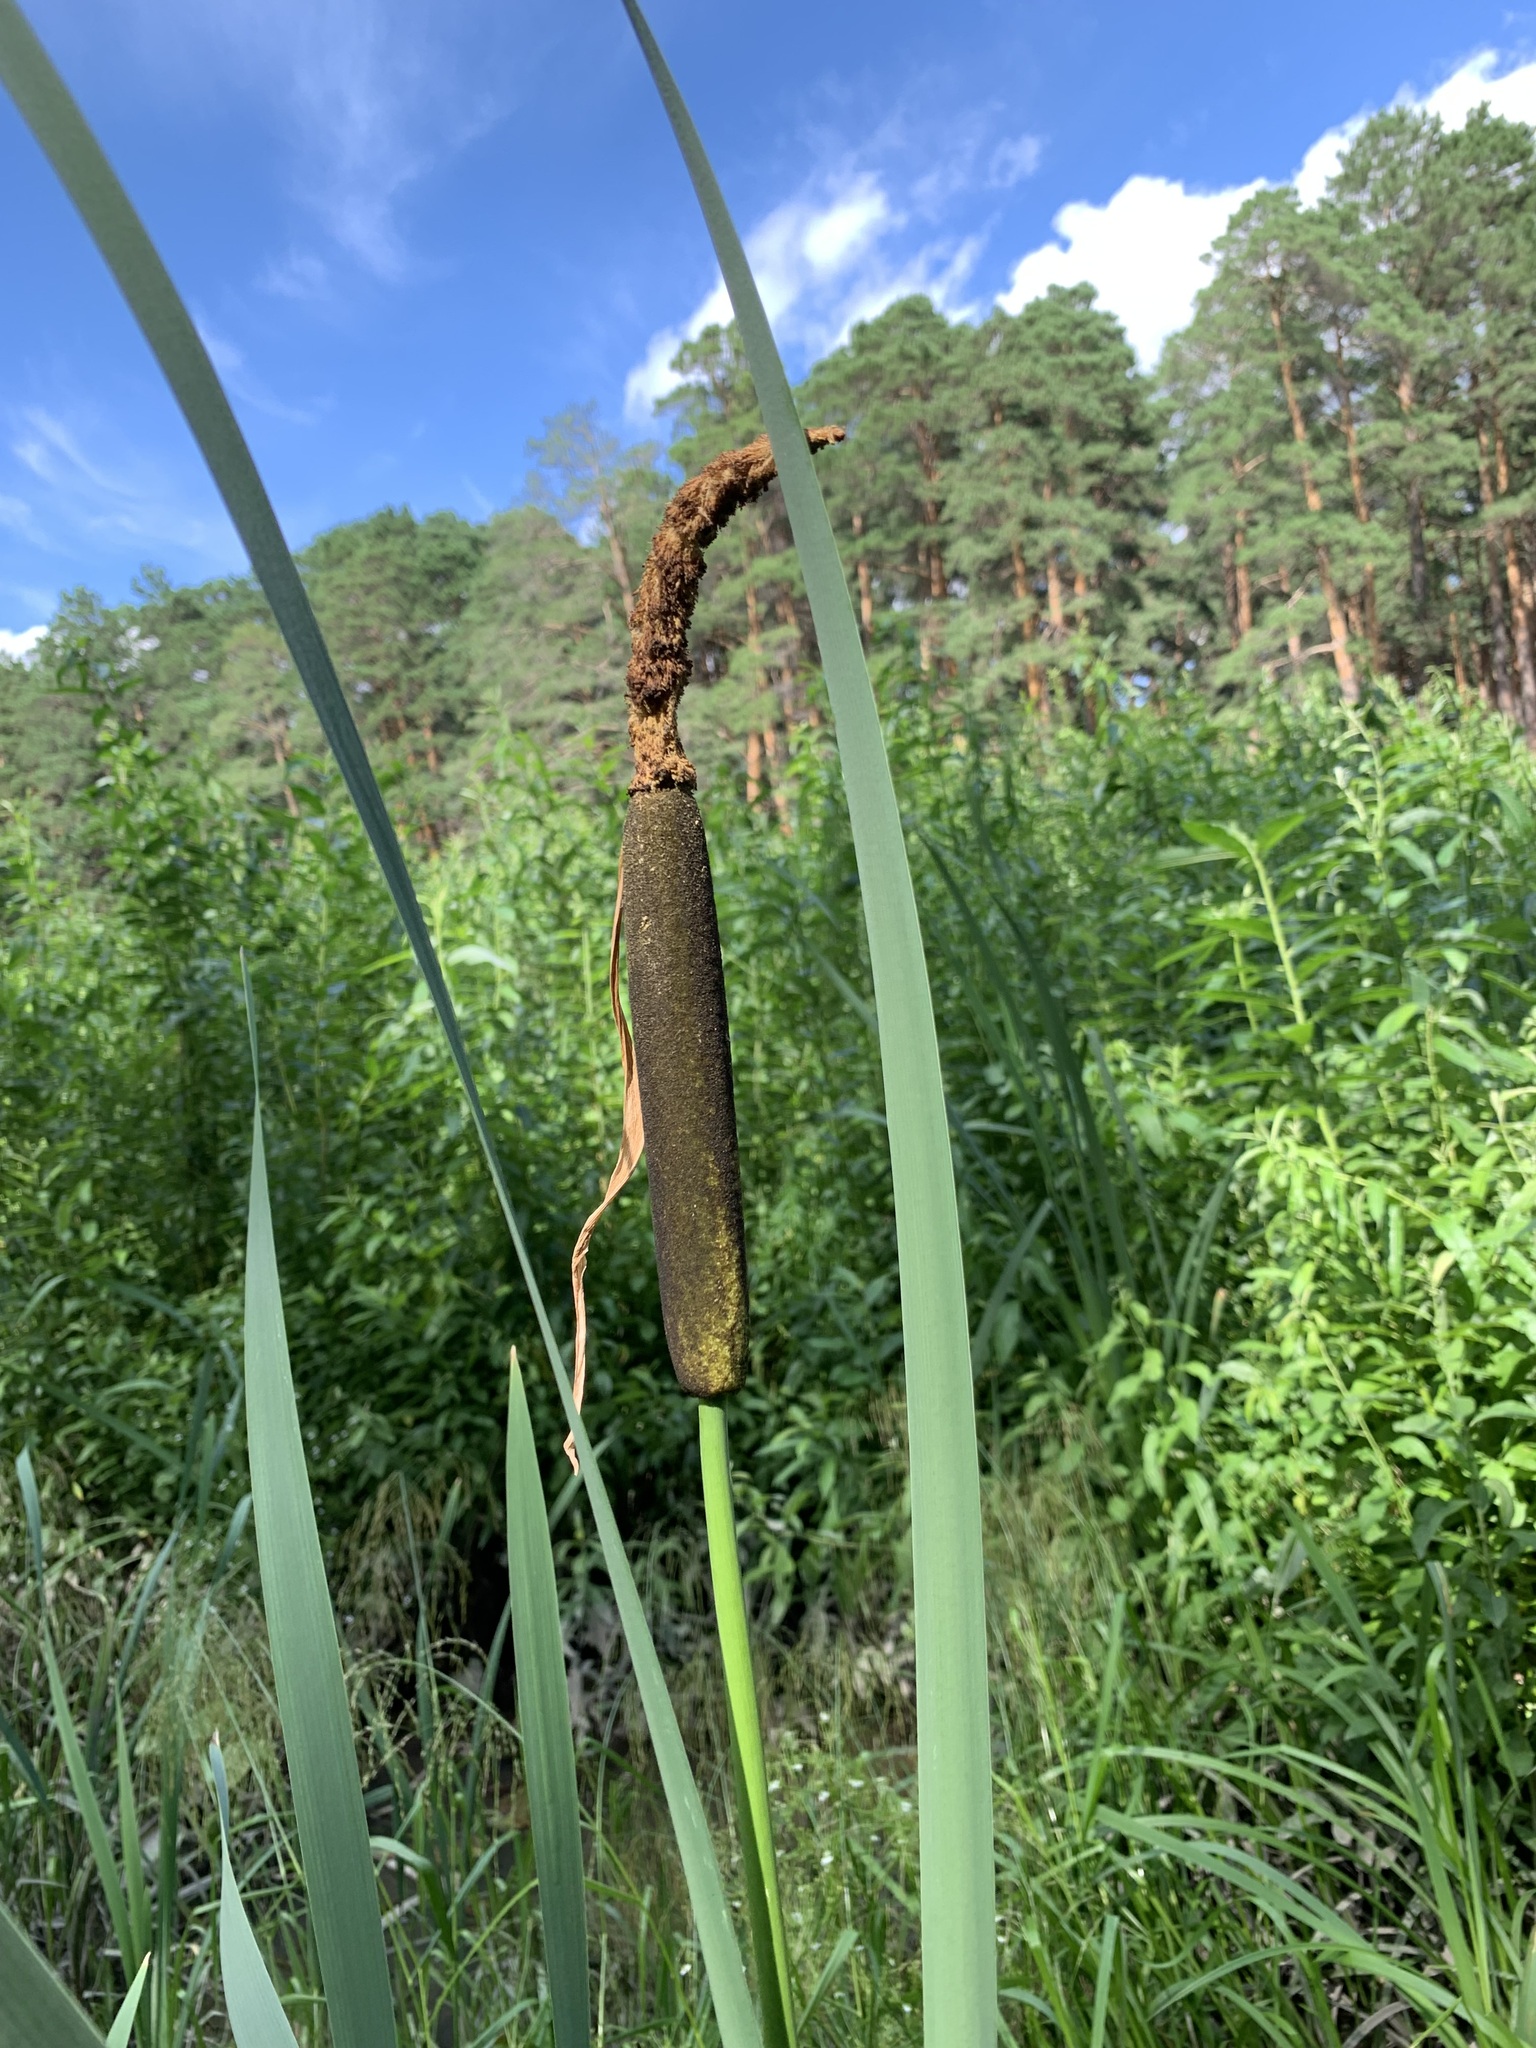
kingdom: Plantae
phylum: Tracheophyta
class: Liliopsida
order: Poales
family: Typhaceae
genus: Typha
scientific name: Typha latifolia
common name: Broadleaf cattail
